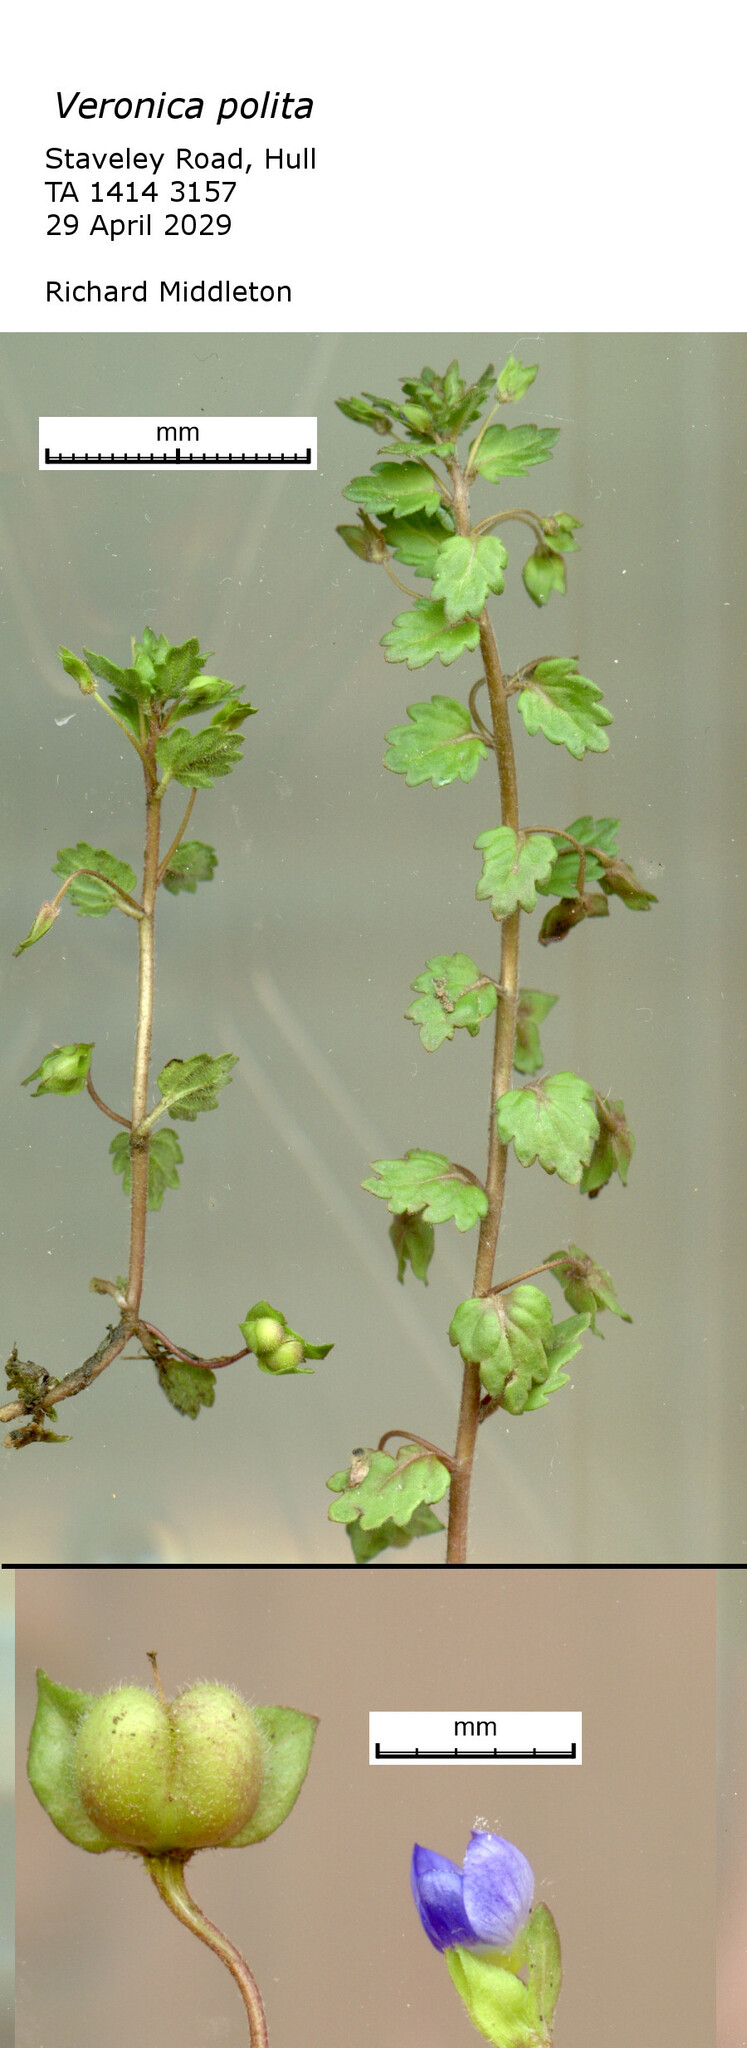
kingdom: Plantae
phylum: Tracheophyta
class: Magnoliopsida
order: Lamiales
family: Plantaginaceae
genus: Veronica
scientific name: Veronica polita
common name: Grey field-speedwell
